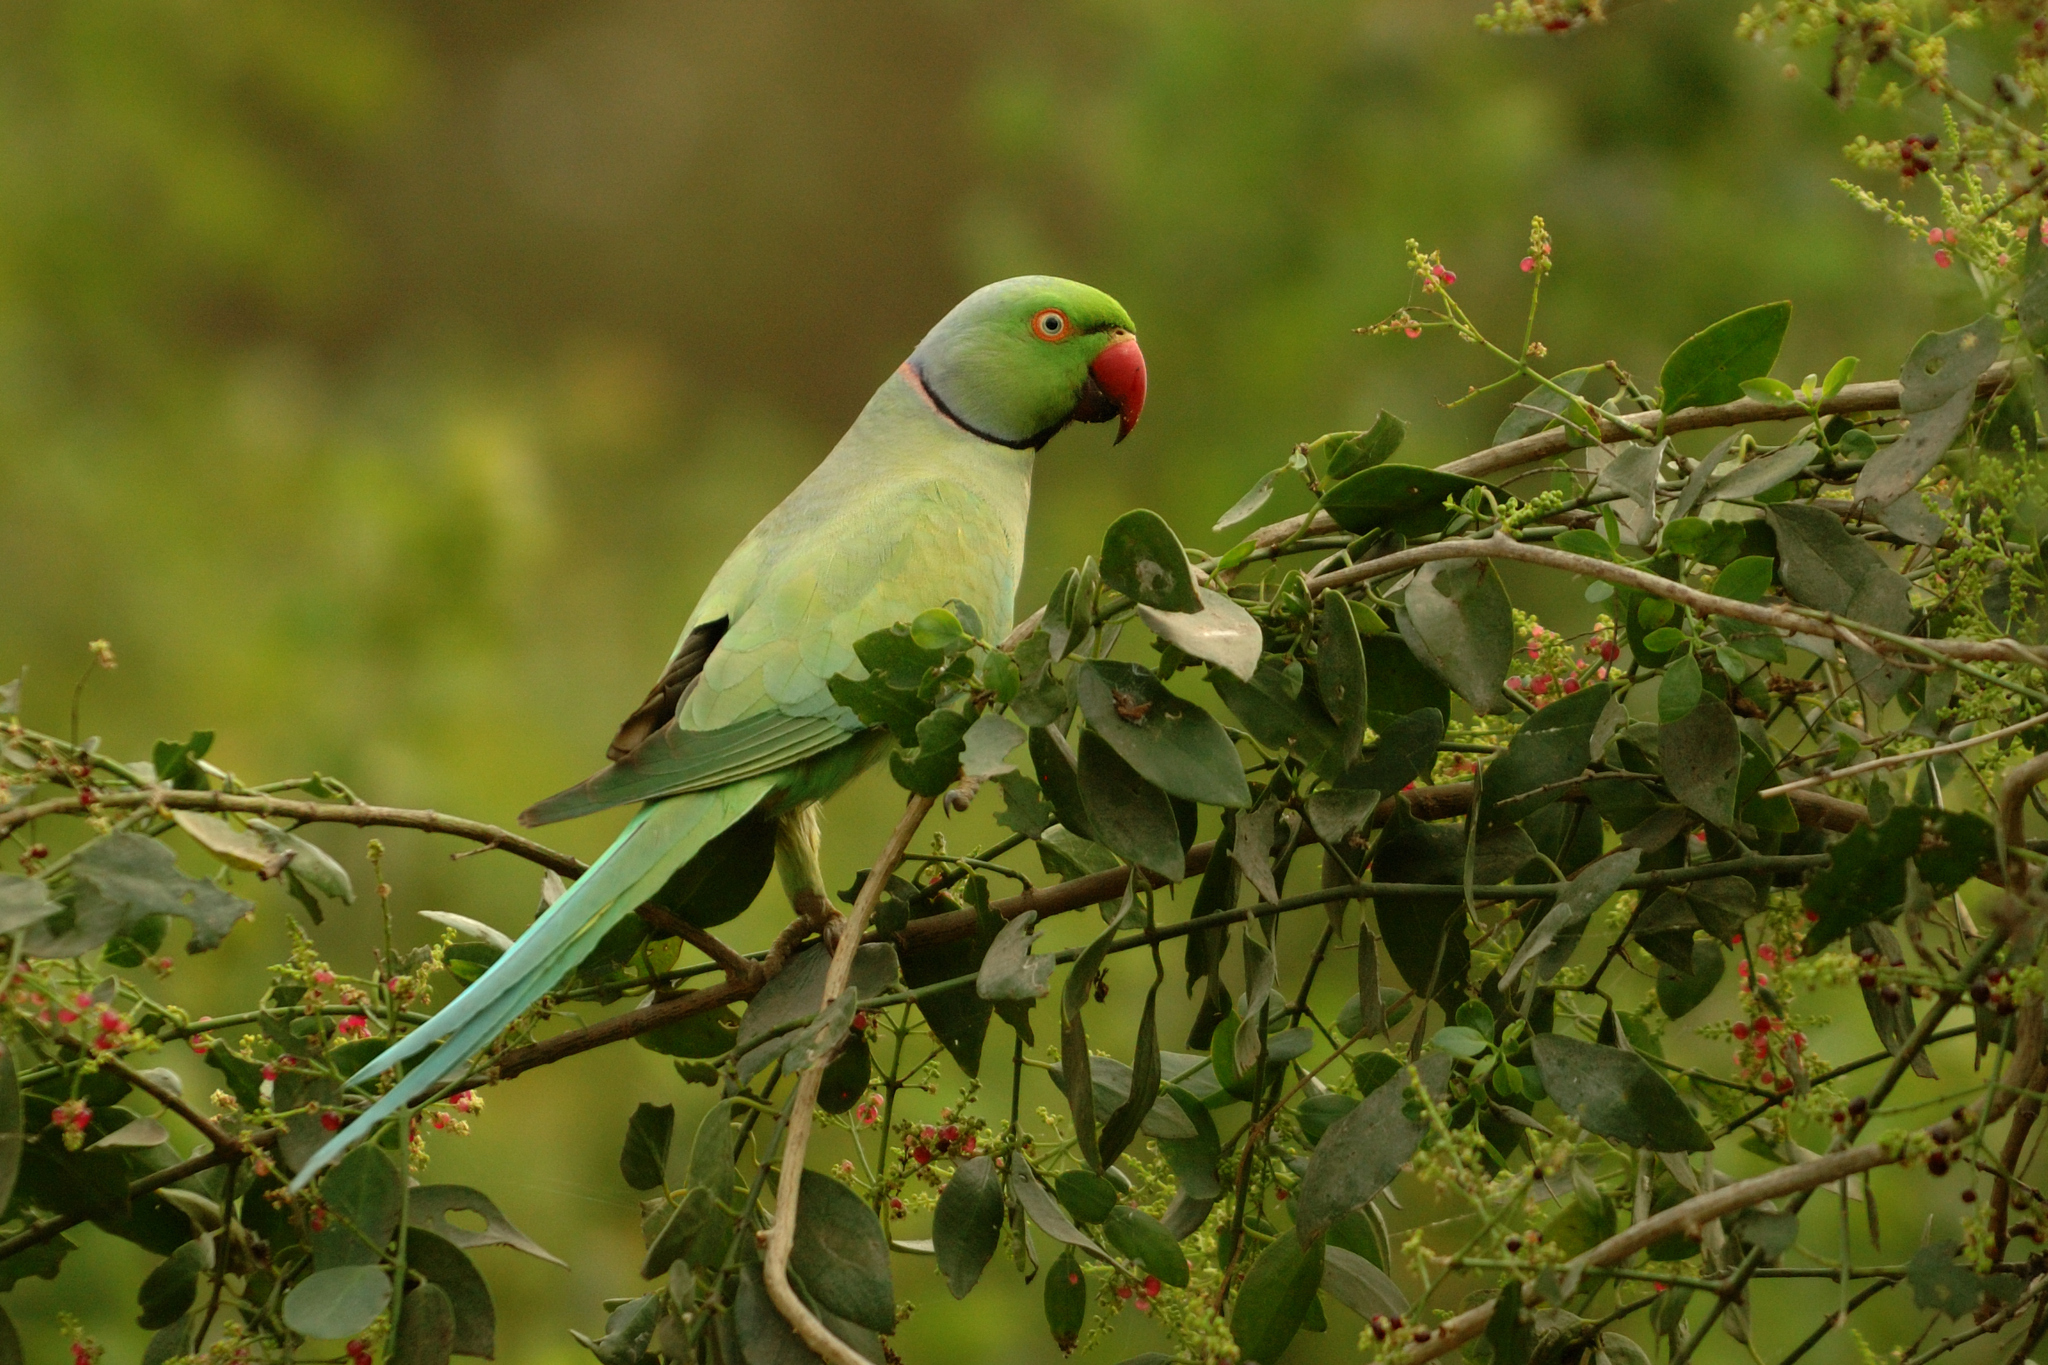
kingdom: Animalia
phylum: Chordata
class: Aves
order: Psittaciformes
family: Psittacidae
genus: Psittacula
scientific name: Psittacula krameri
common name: Rose-ringed parakeet
